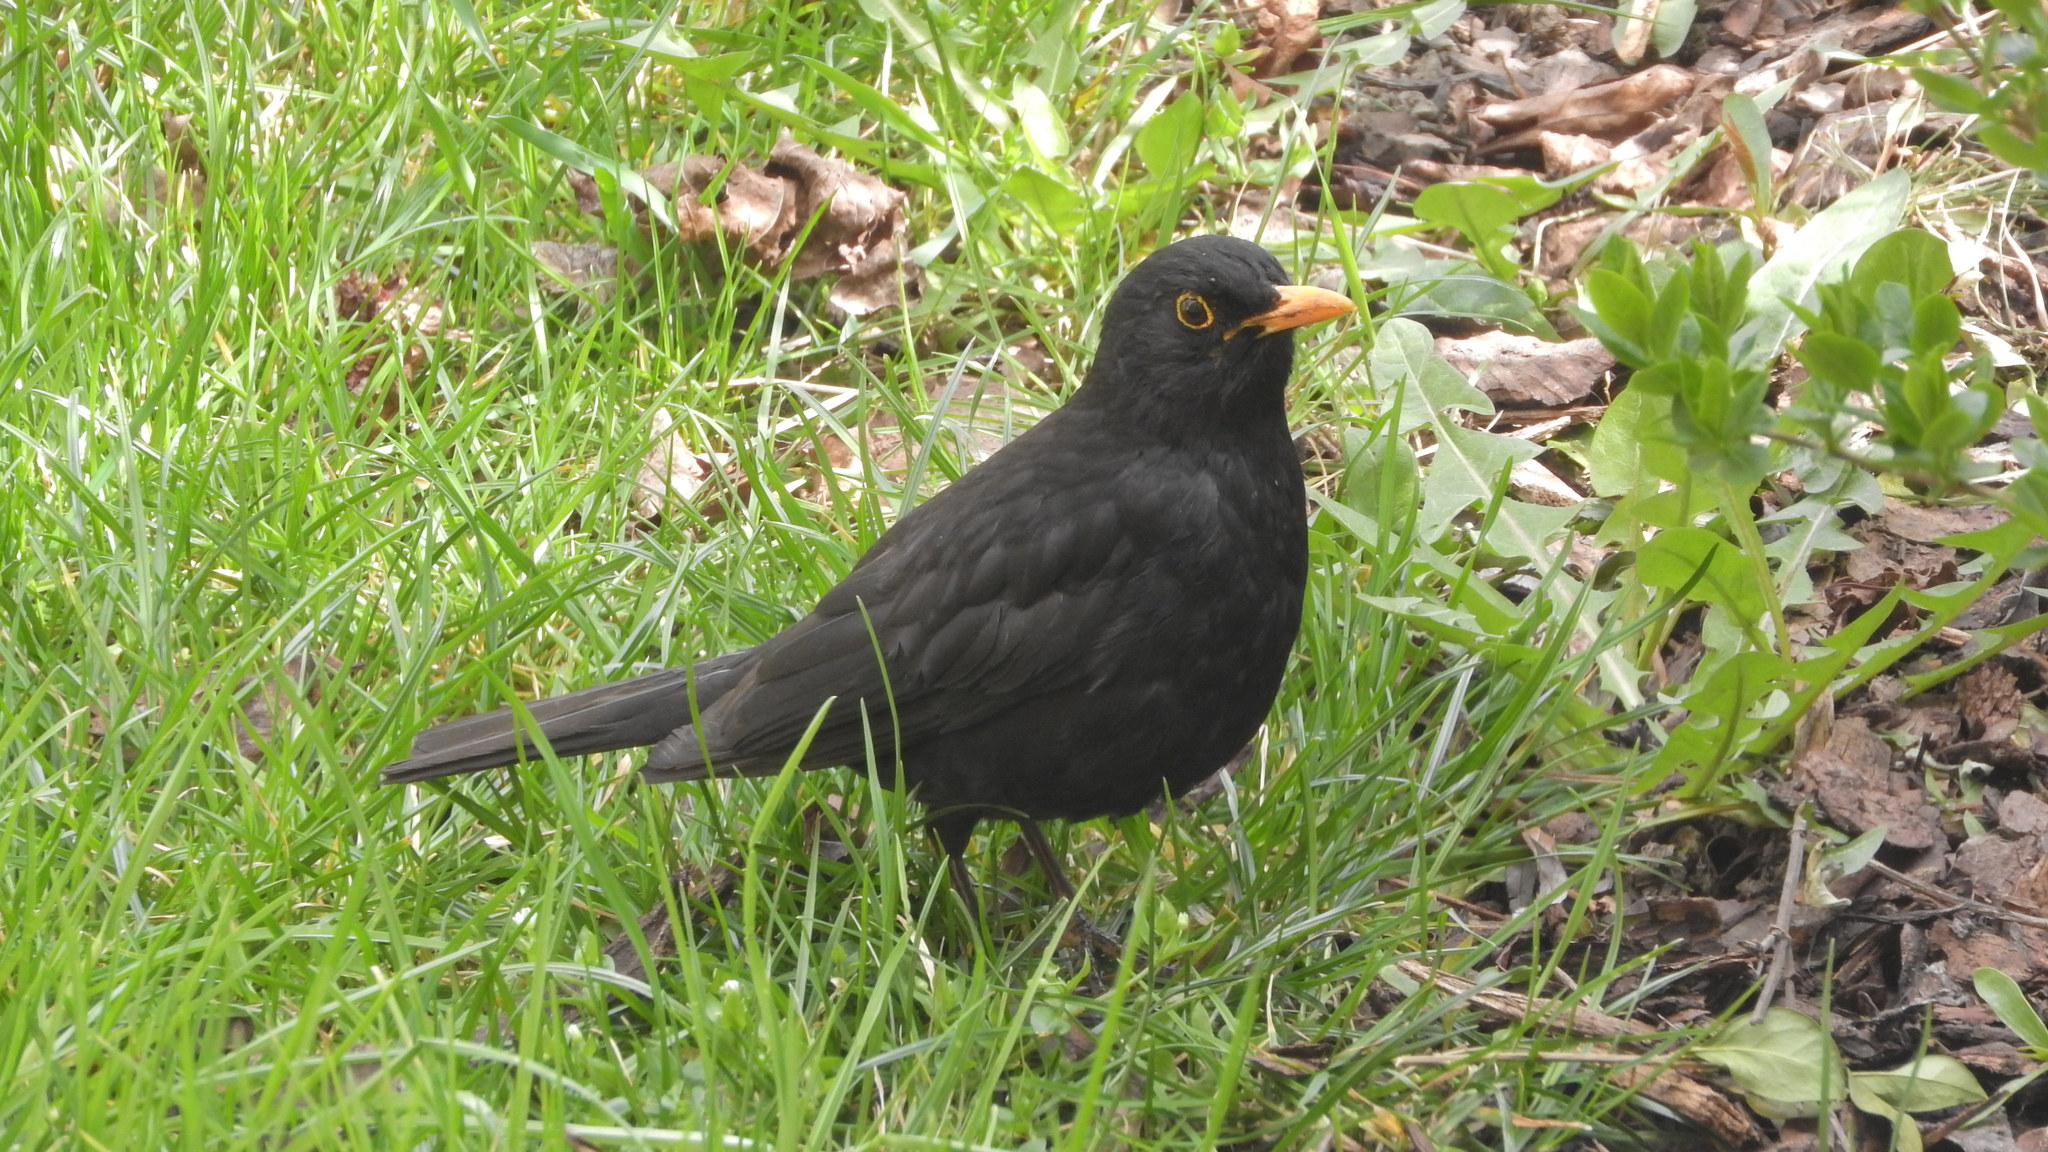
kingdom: Animalia
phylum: Chordata
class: Aves
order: Passeriformes
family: Turdidae
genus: Turdus
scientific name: Turdus merula
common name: Common blackbird
